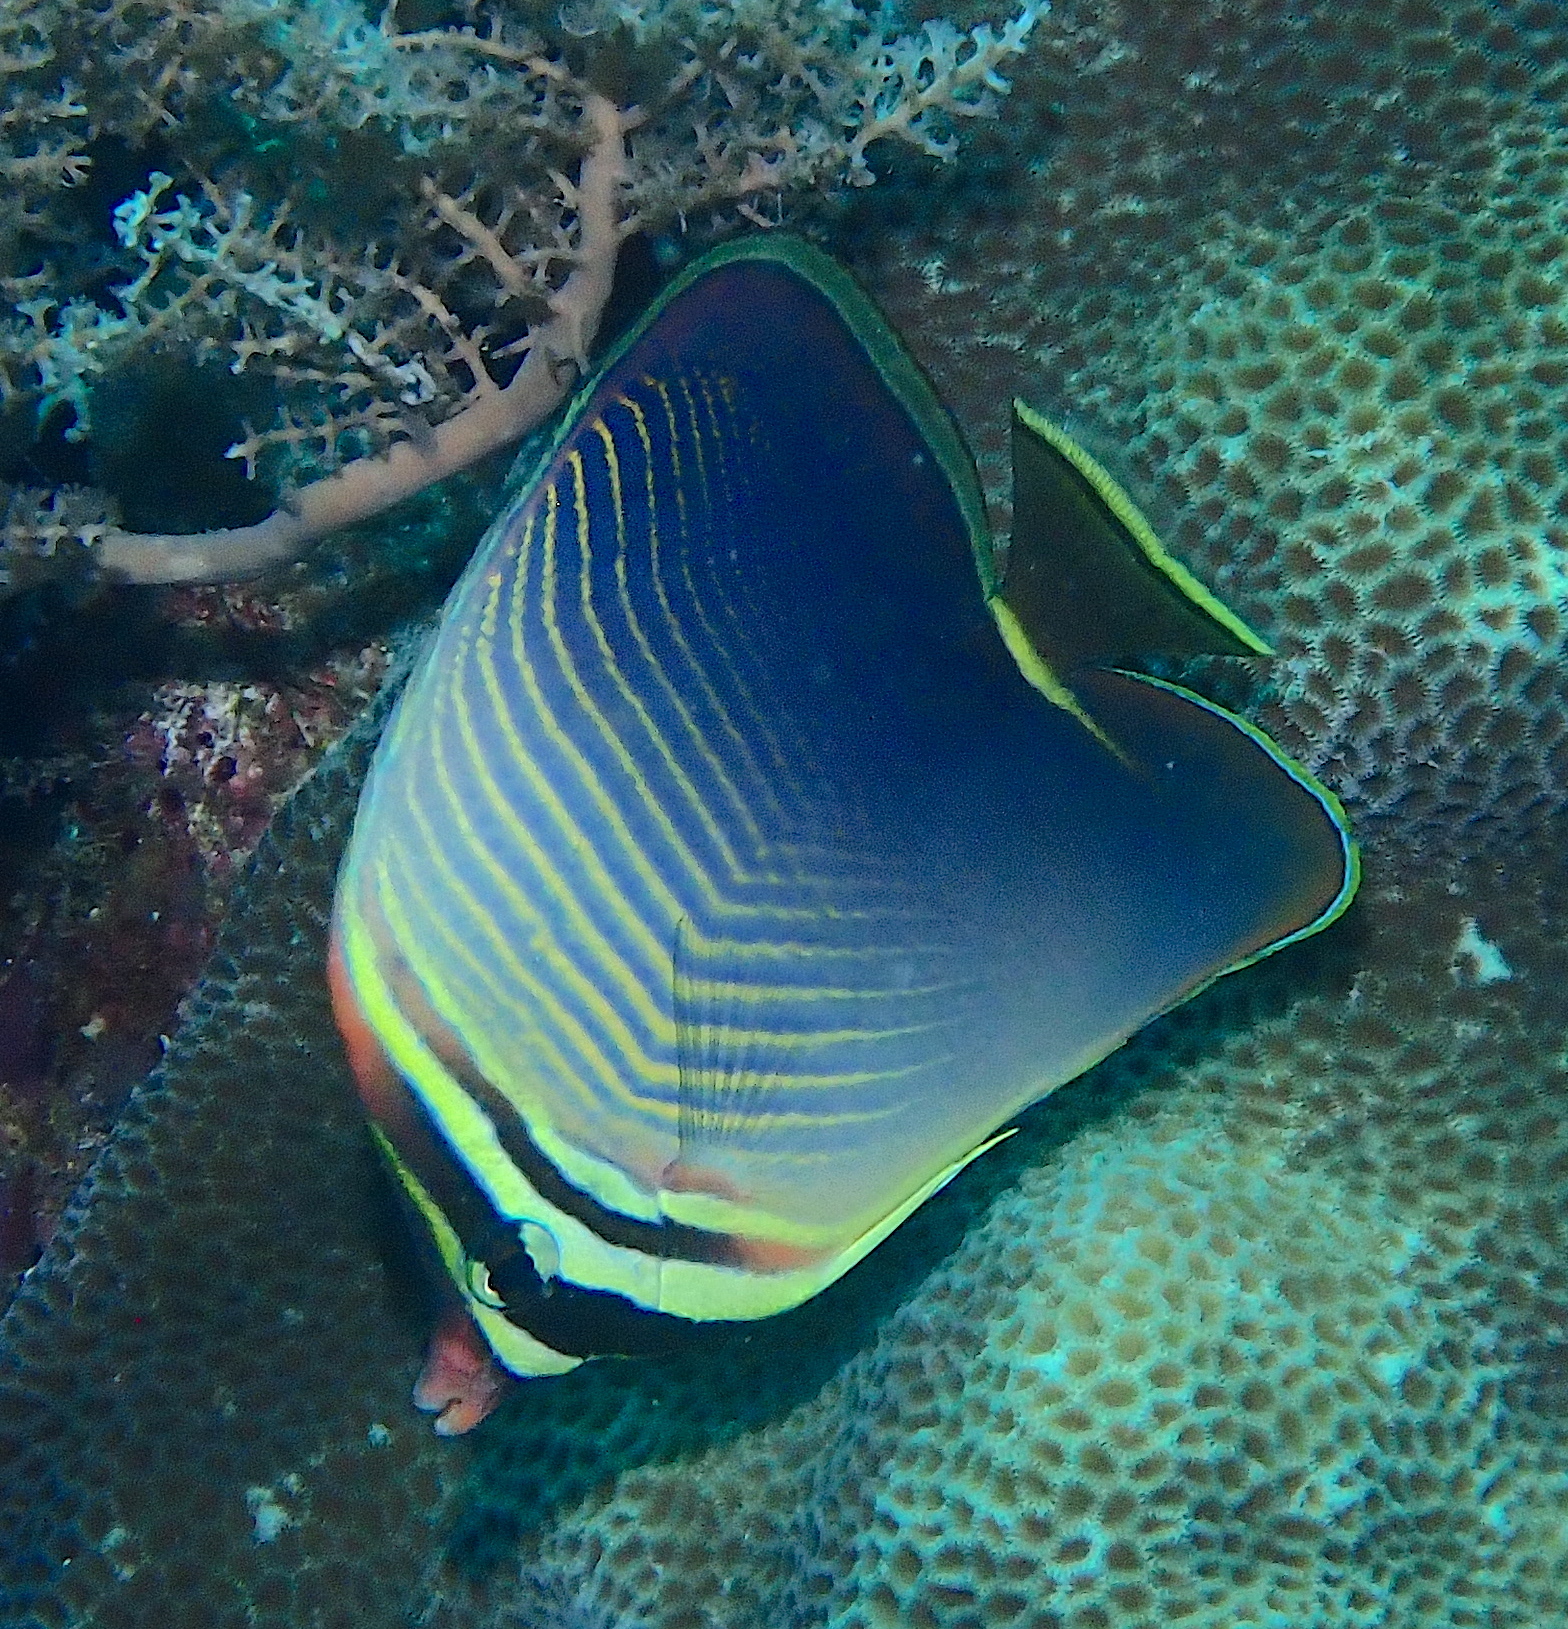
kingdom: Animalia
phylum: Chordata
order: Perciformes
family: Chaetodontidae
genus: Chaetodon
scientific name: Chaetodon baronessa
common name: Triangular butterflyfish
